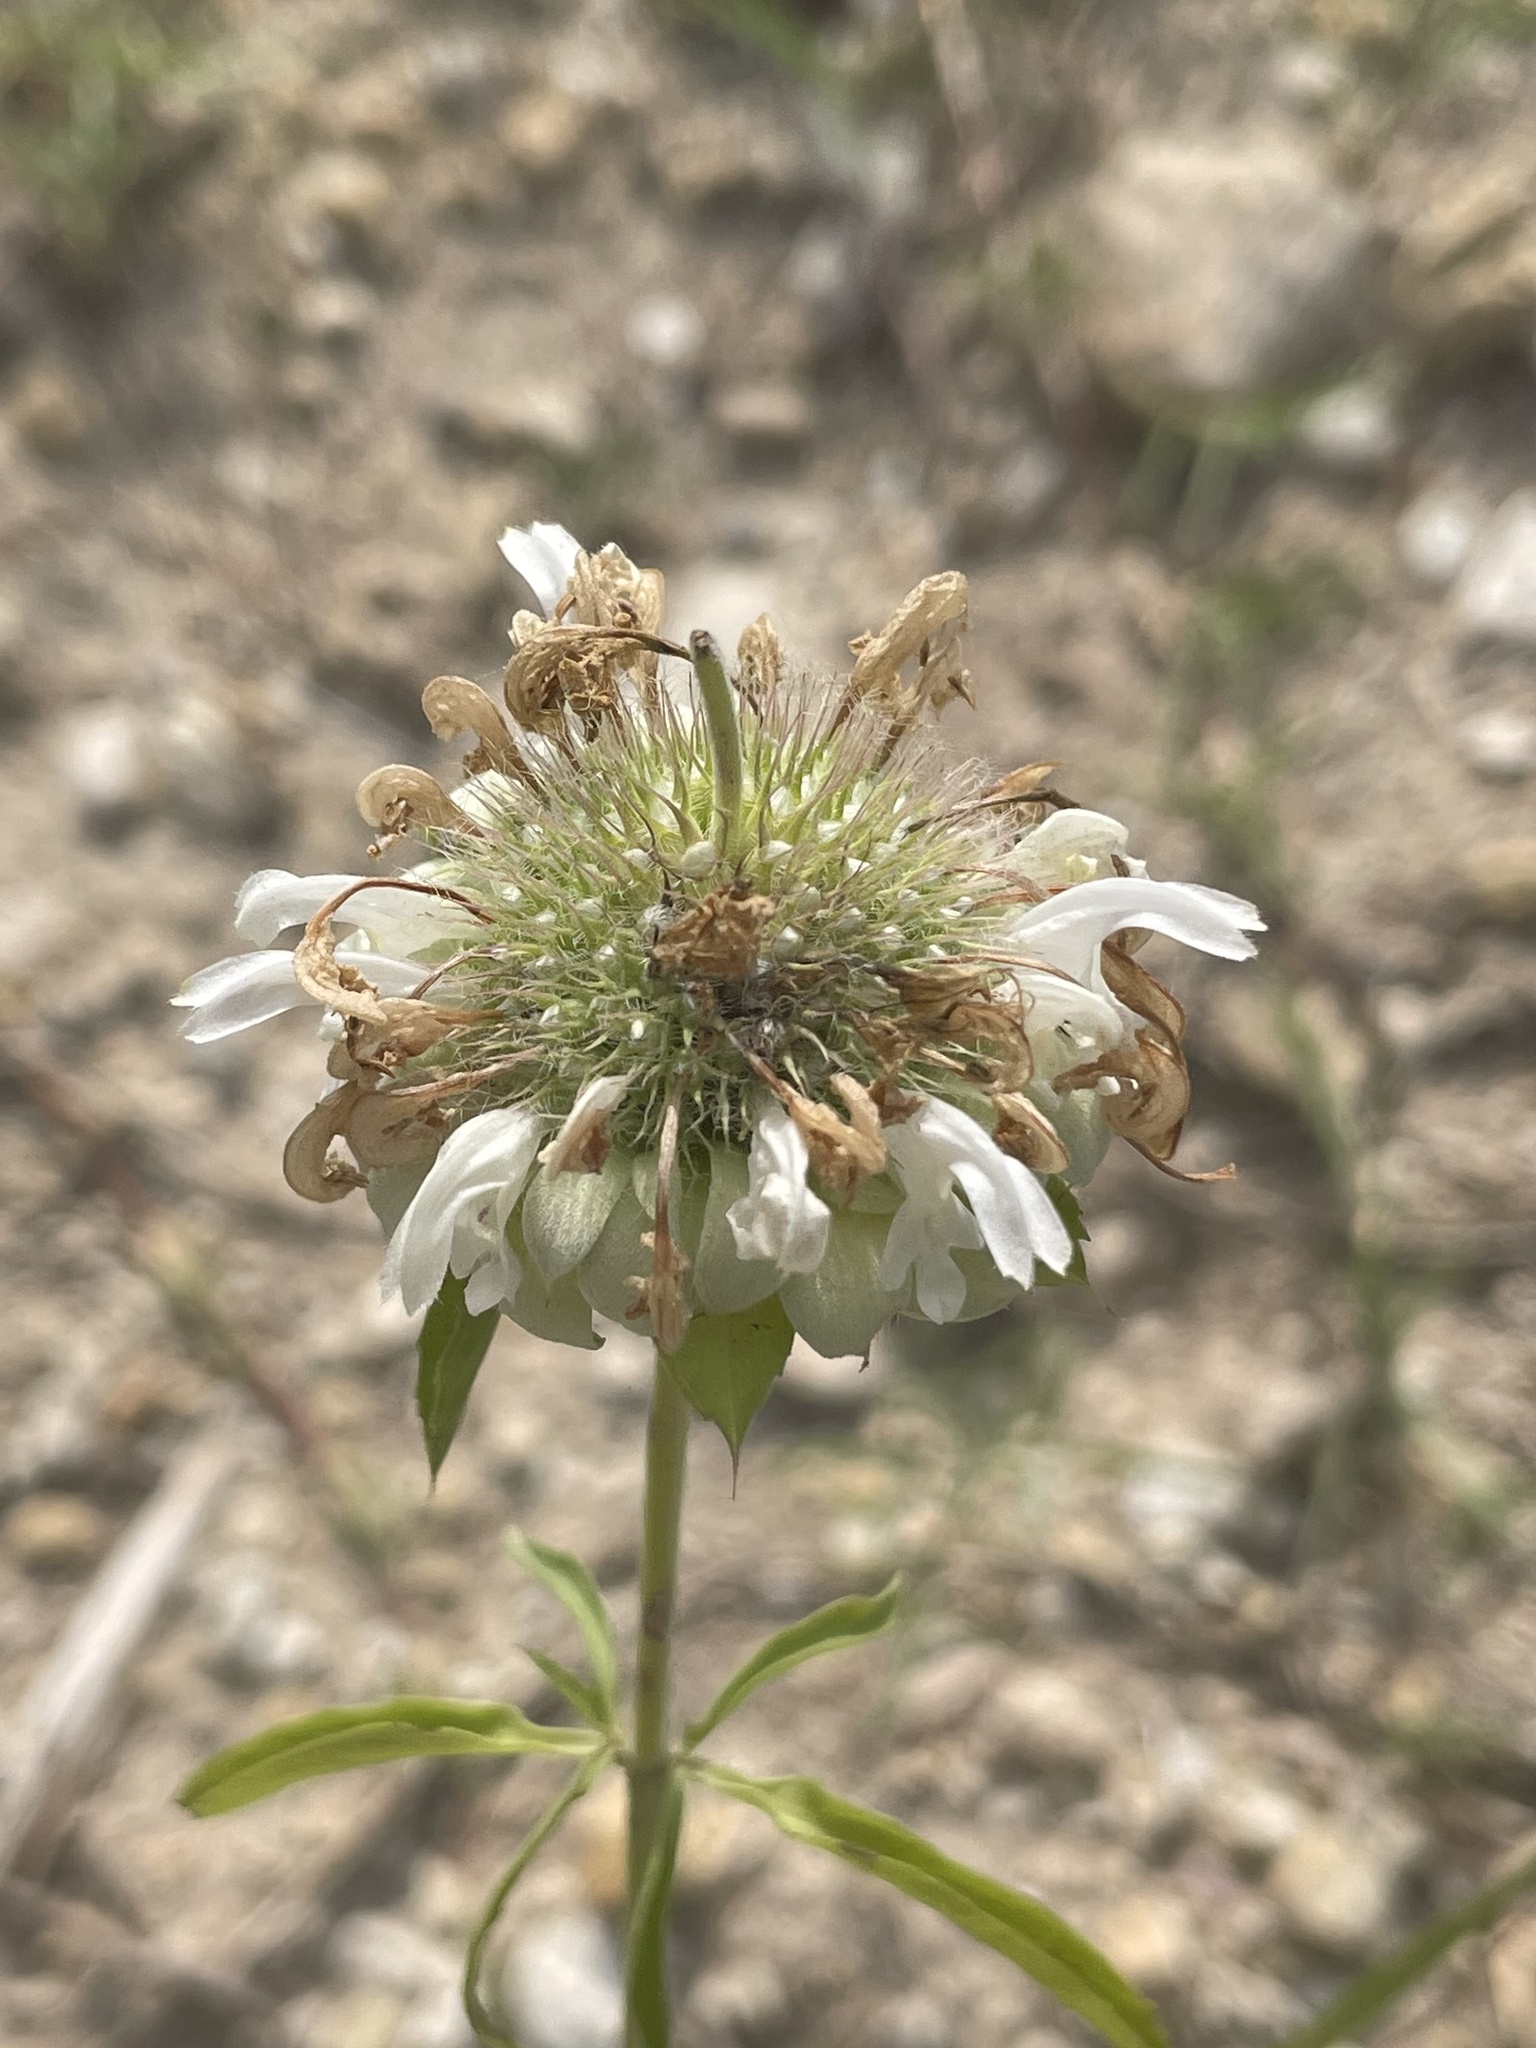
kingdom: Plantae
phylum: Tracheophyta
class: Magnoliopsida
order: Lamiales
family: Lamiaceae
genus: Monarda
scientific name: Monarda citriodora
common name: Lemon beebalm
